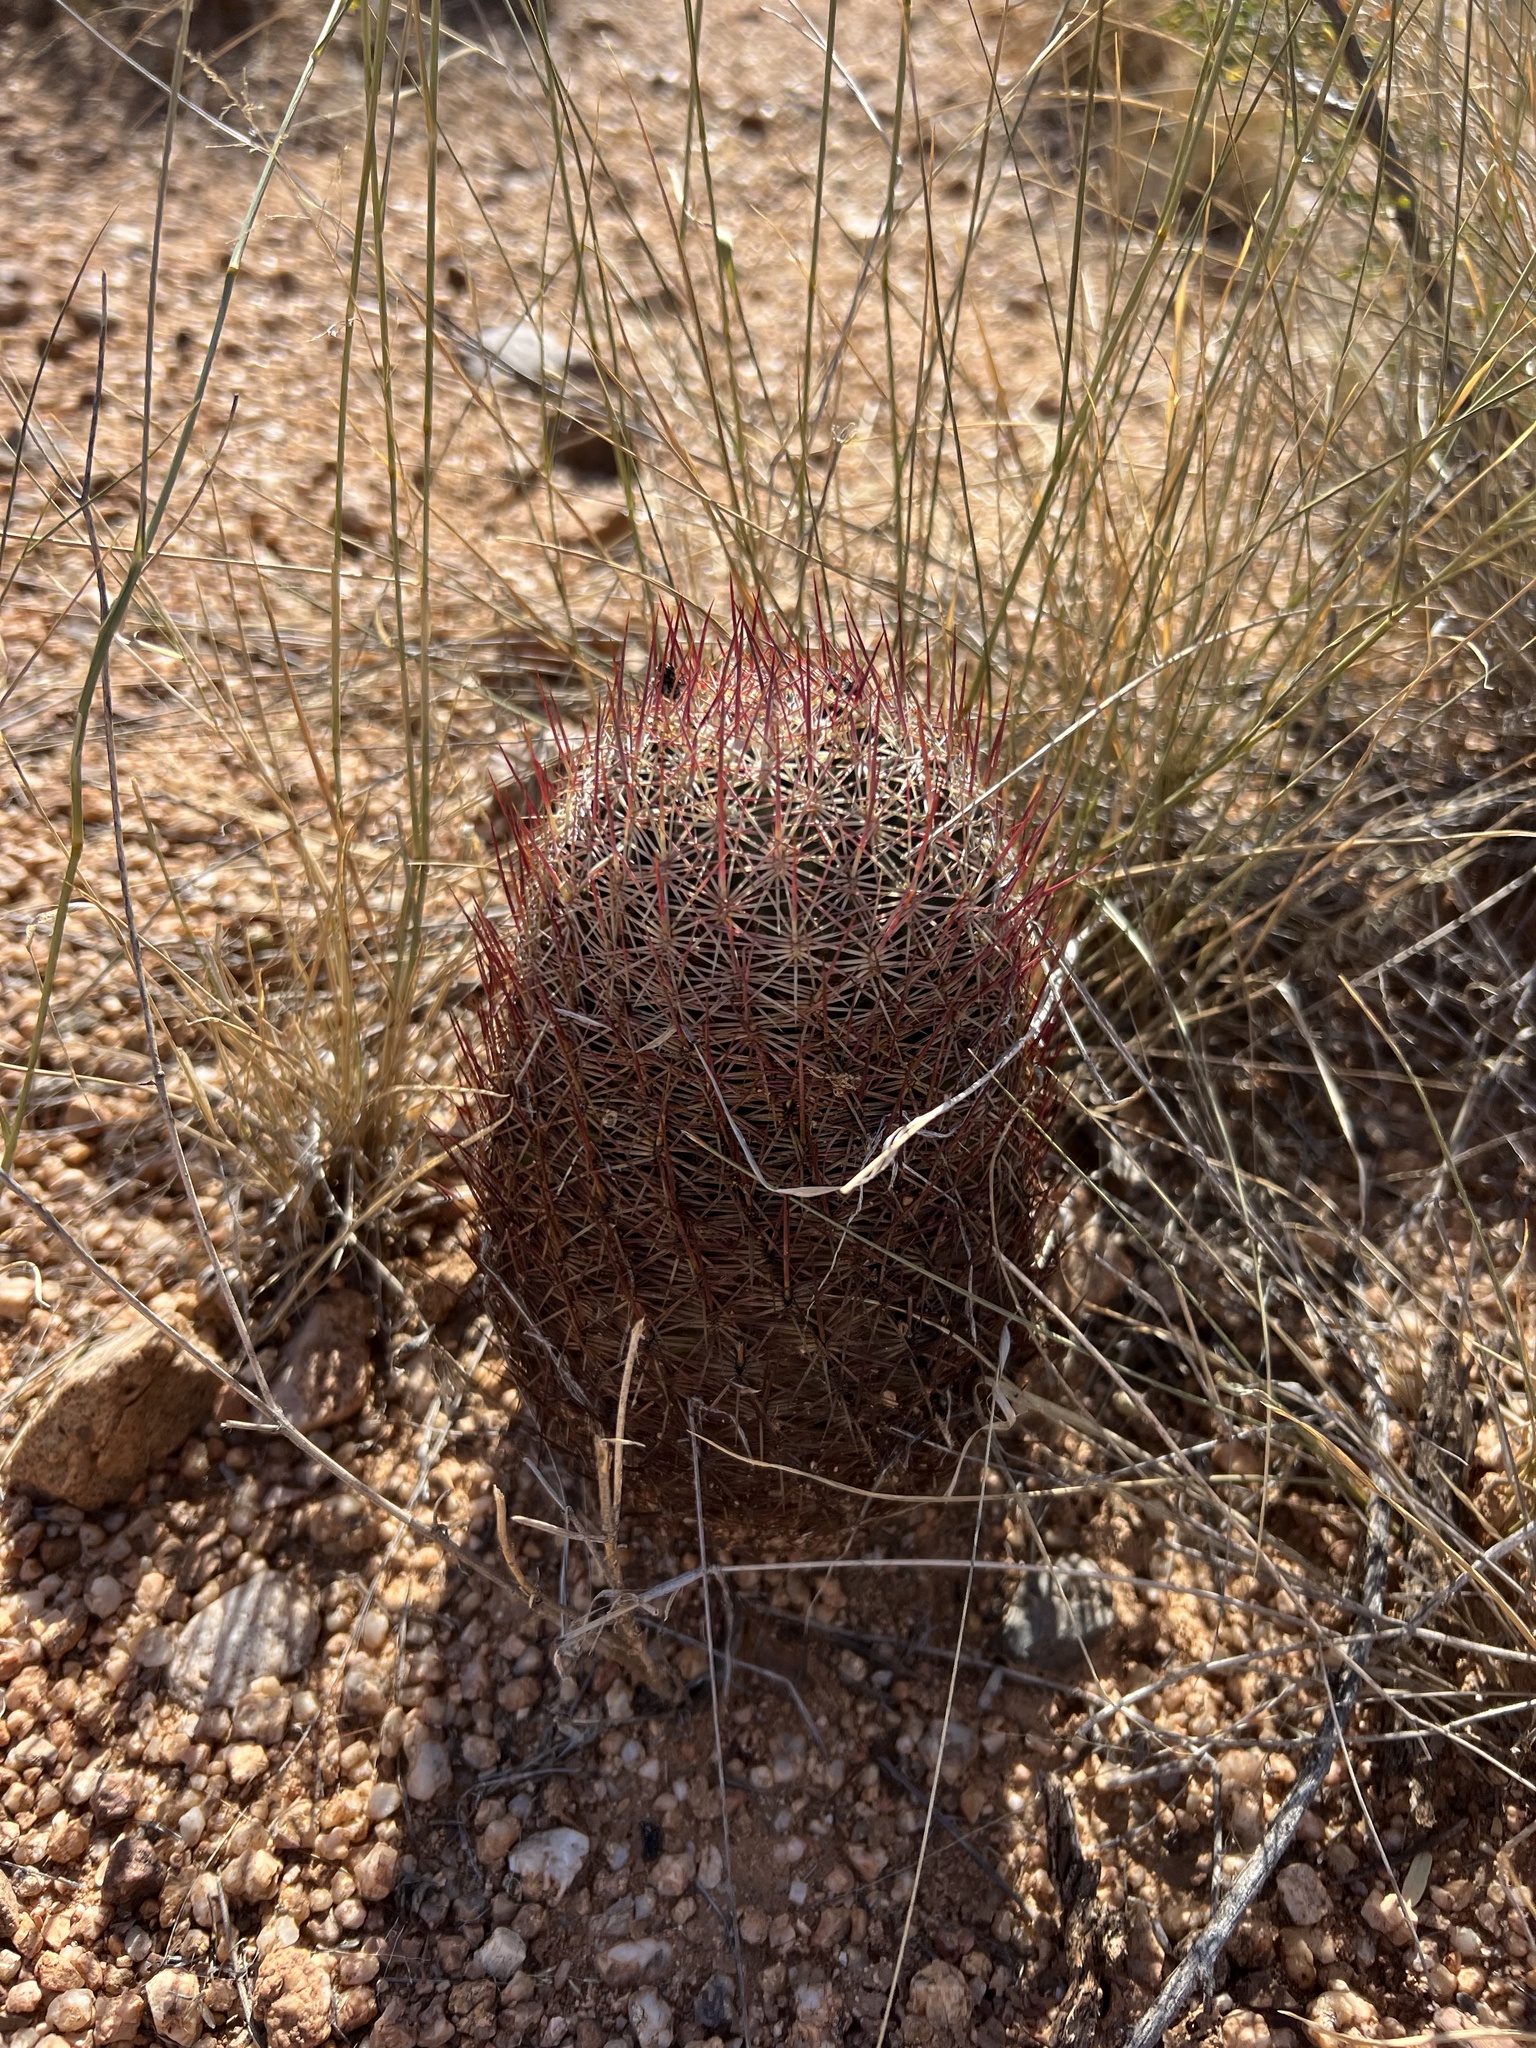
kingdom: Plantae
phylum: Tracheophyta
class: Magnoliopsida
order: Caryophyllales
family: Cactaceae
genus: Sclerocactus
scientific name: Sclerocactus johnsonii
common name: Eight-spine fishhook cactus
